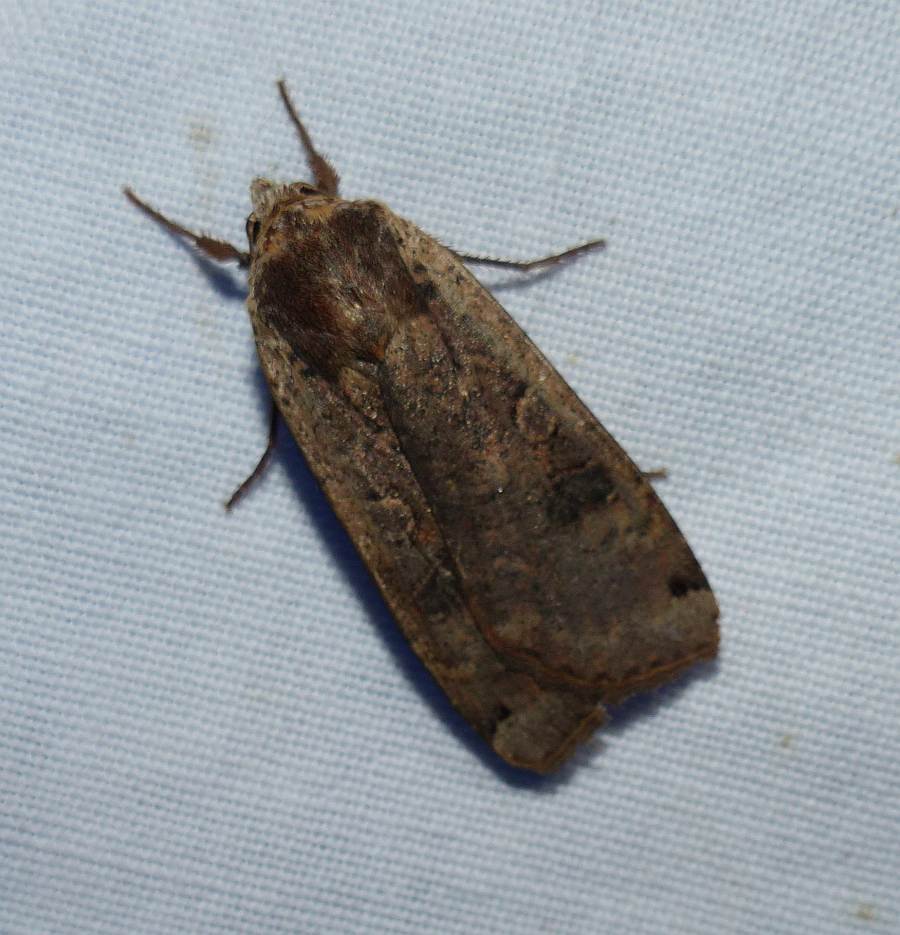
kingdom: Animalia
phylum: Arthropoda
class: Insecta
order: Lepidoptera
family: Noctuidae
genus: Noctua
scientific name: Noctua pronuba
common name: Large yellow underwing
